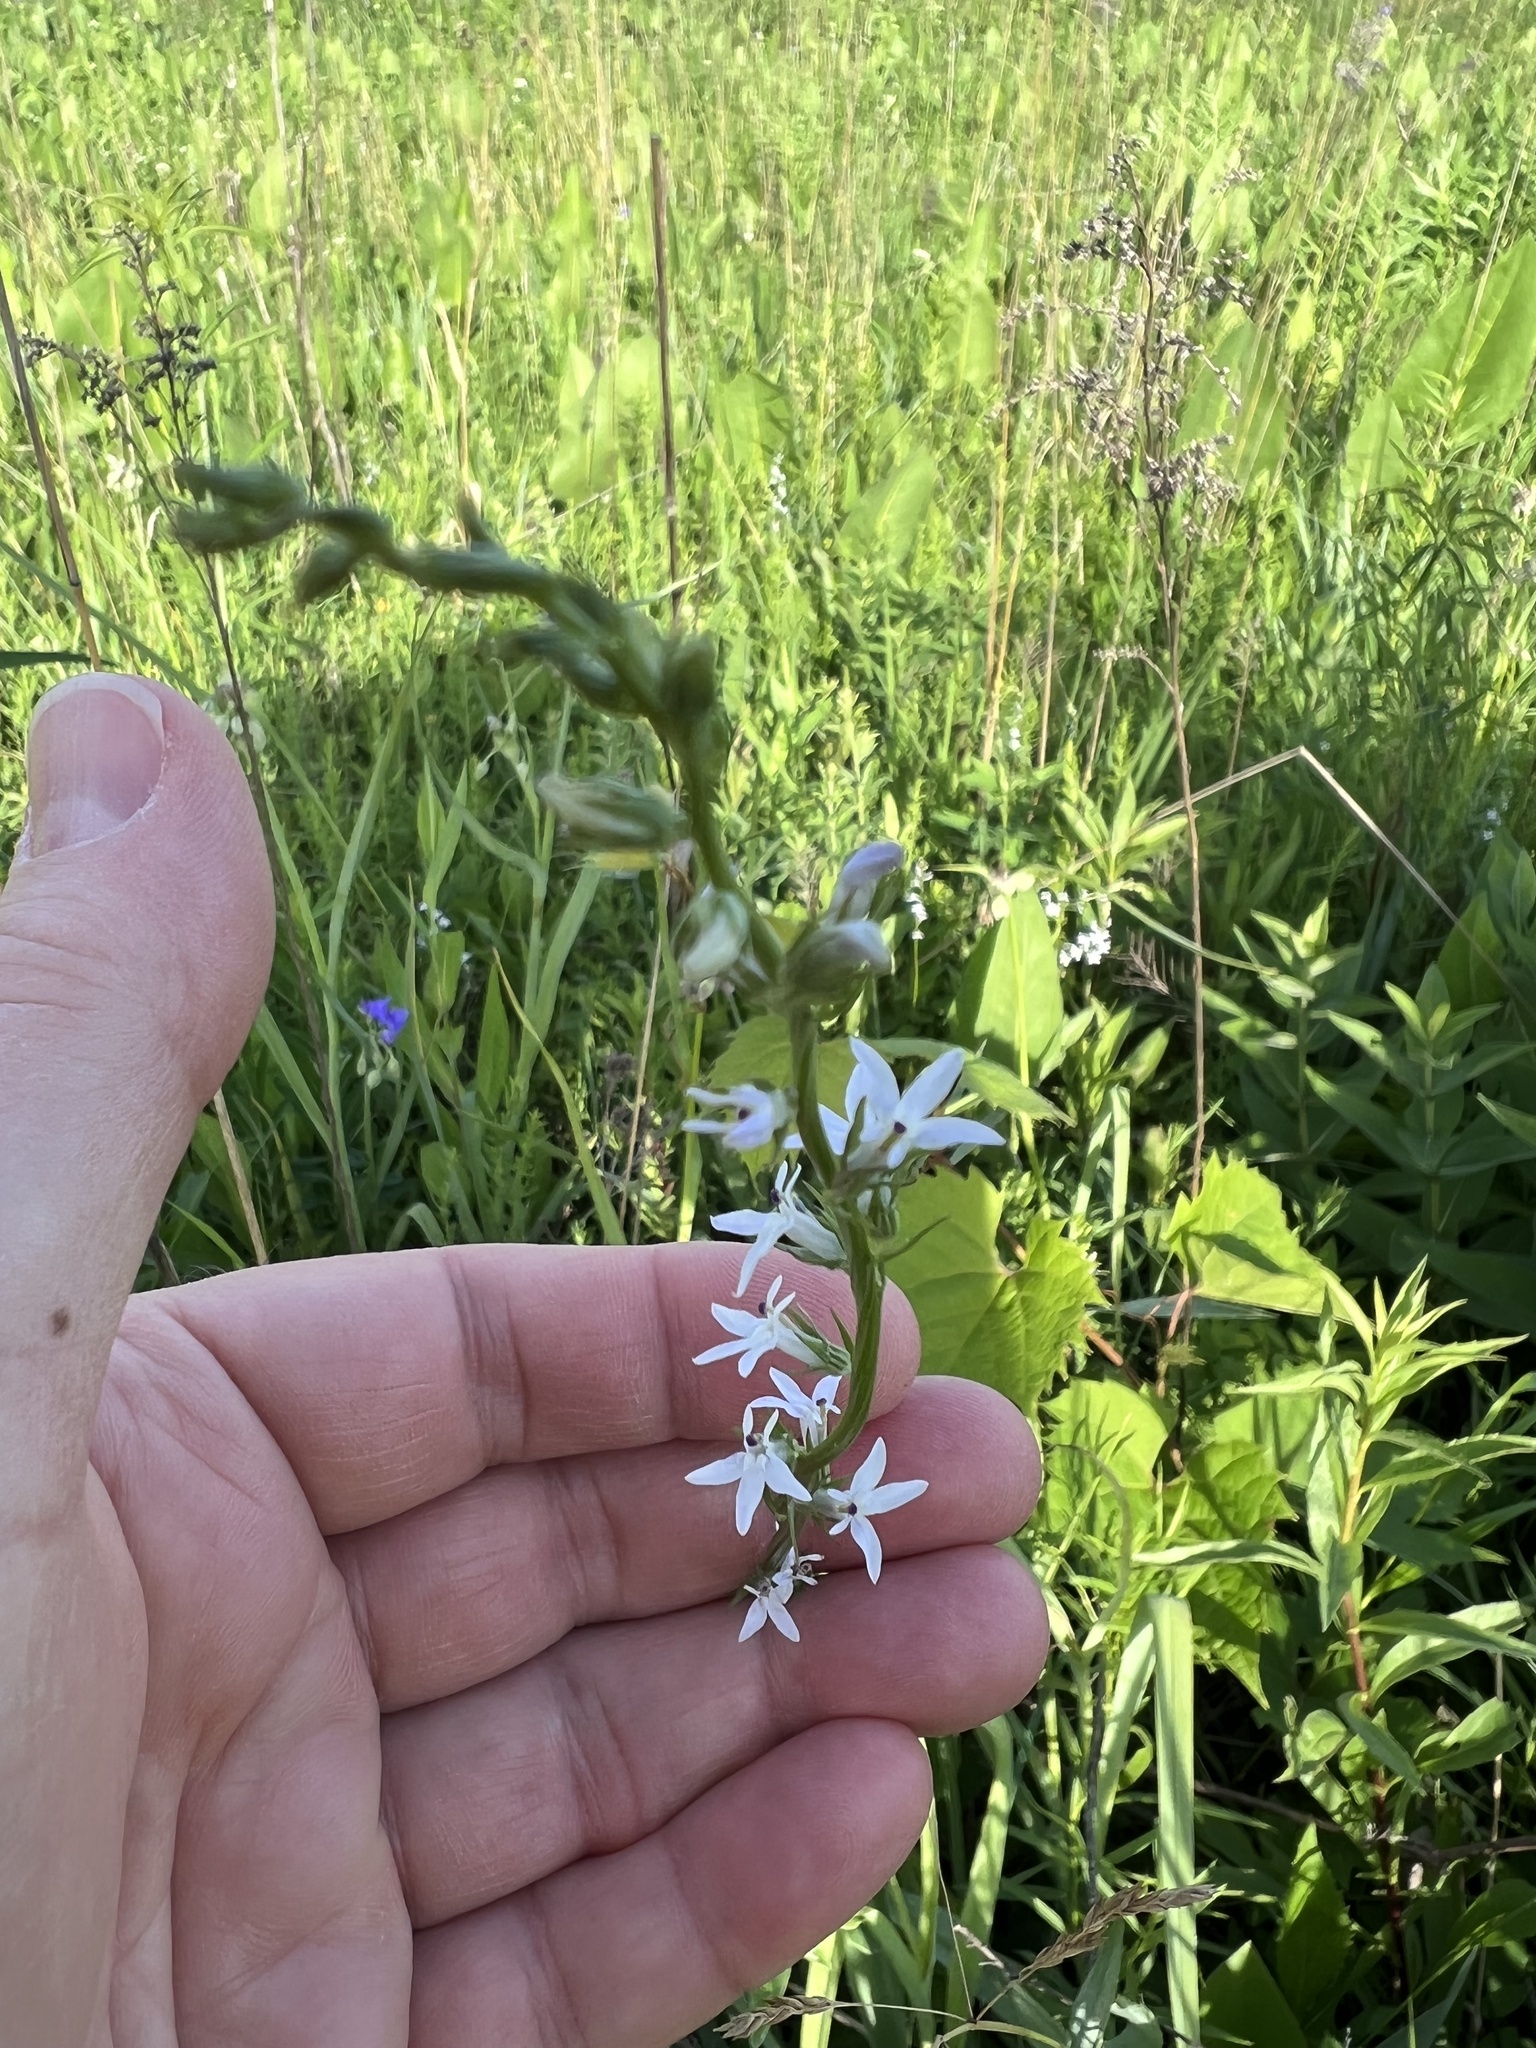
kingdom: Plantae
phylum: Tracheophyta
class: Magnoliopsida
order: Asterales
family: Campanulaceae
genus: Lobelia
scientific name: Lobelia spicata
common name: Pale-spike lobelia
